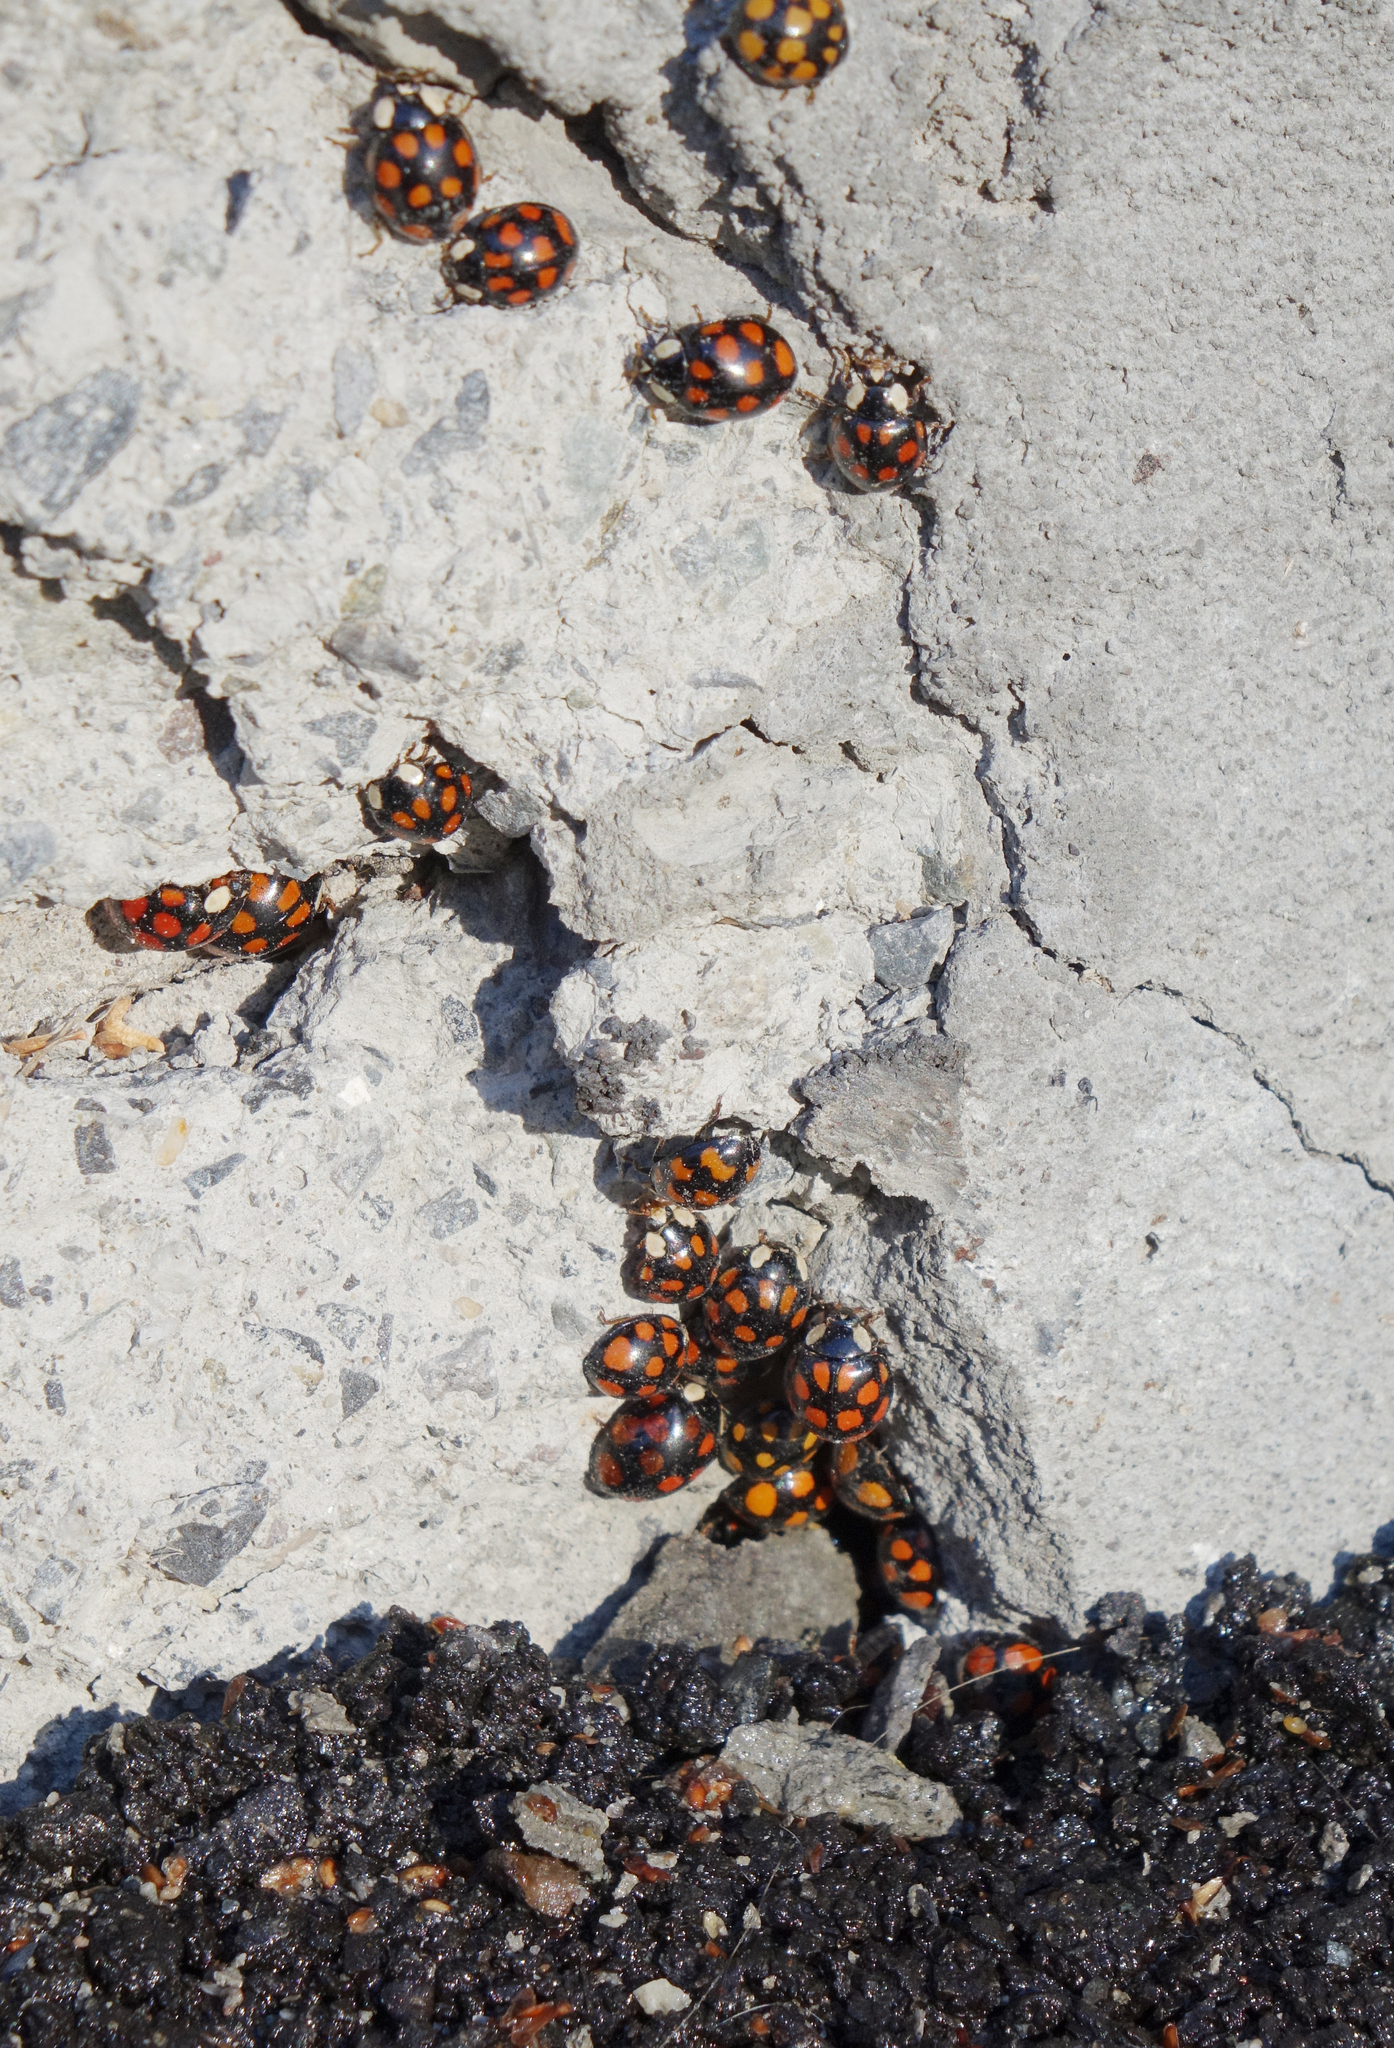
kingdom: Animalia
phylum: Arthropoda
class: Insecta
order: Coleoptera
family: Coccinellidae
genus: Harmonia
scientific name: Harmonia axyridis
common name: Harlequin ladybird
